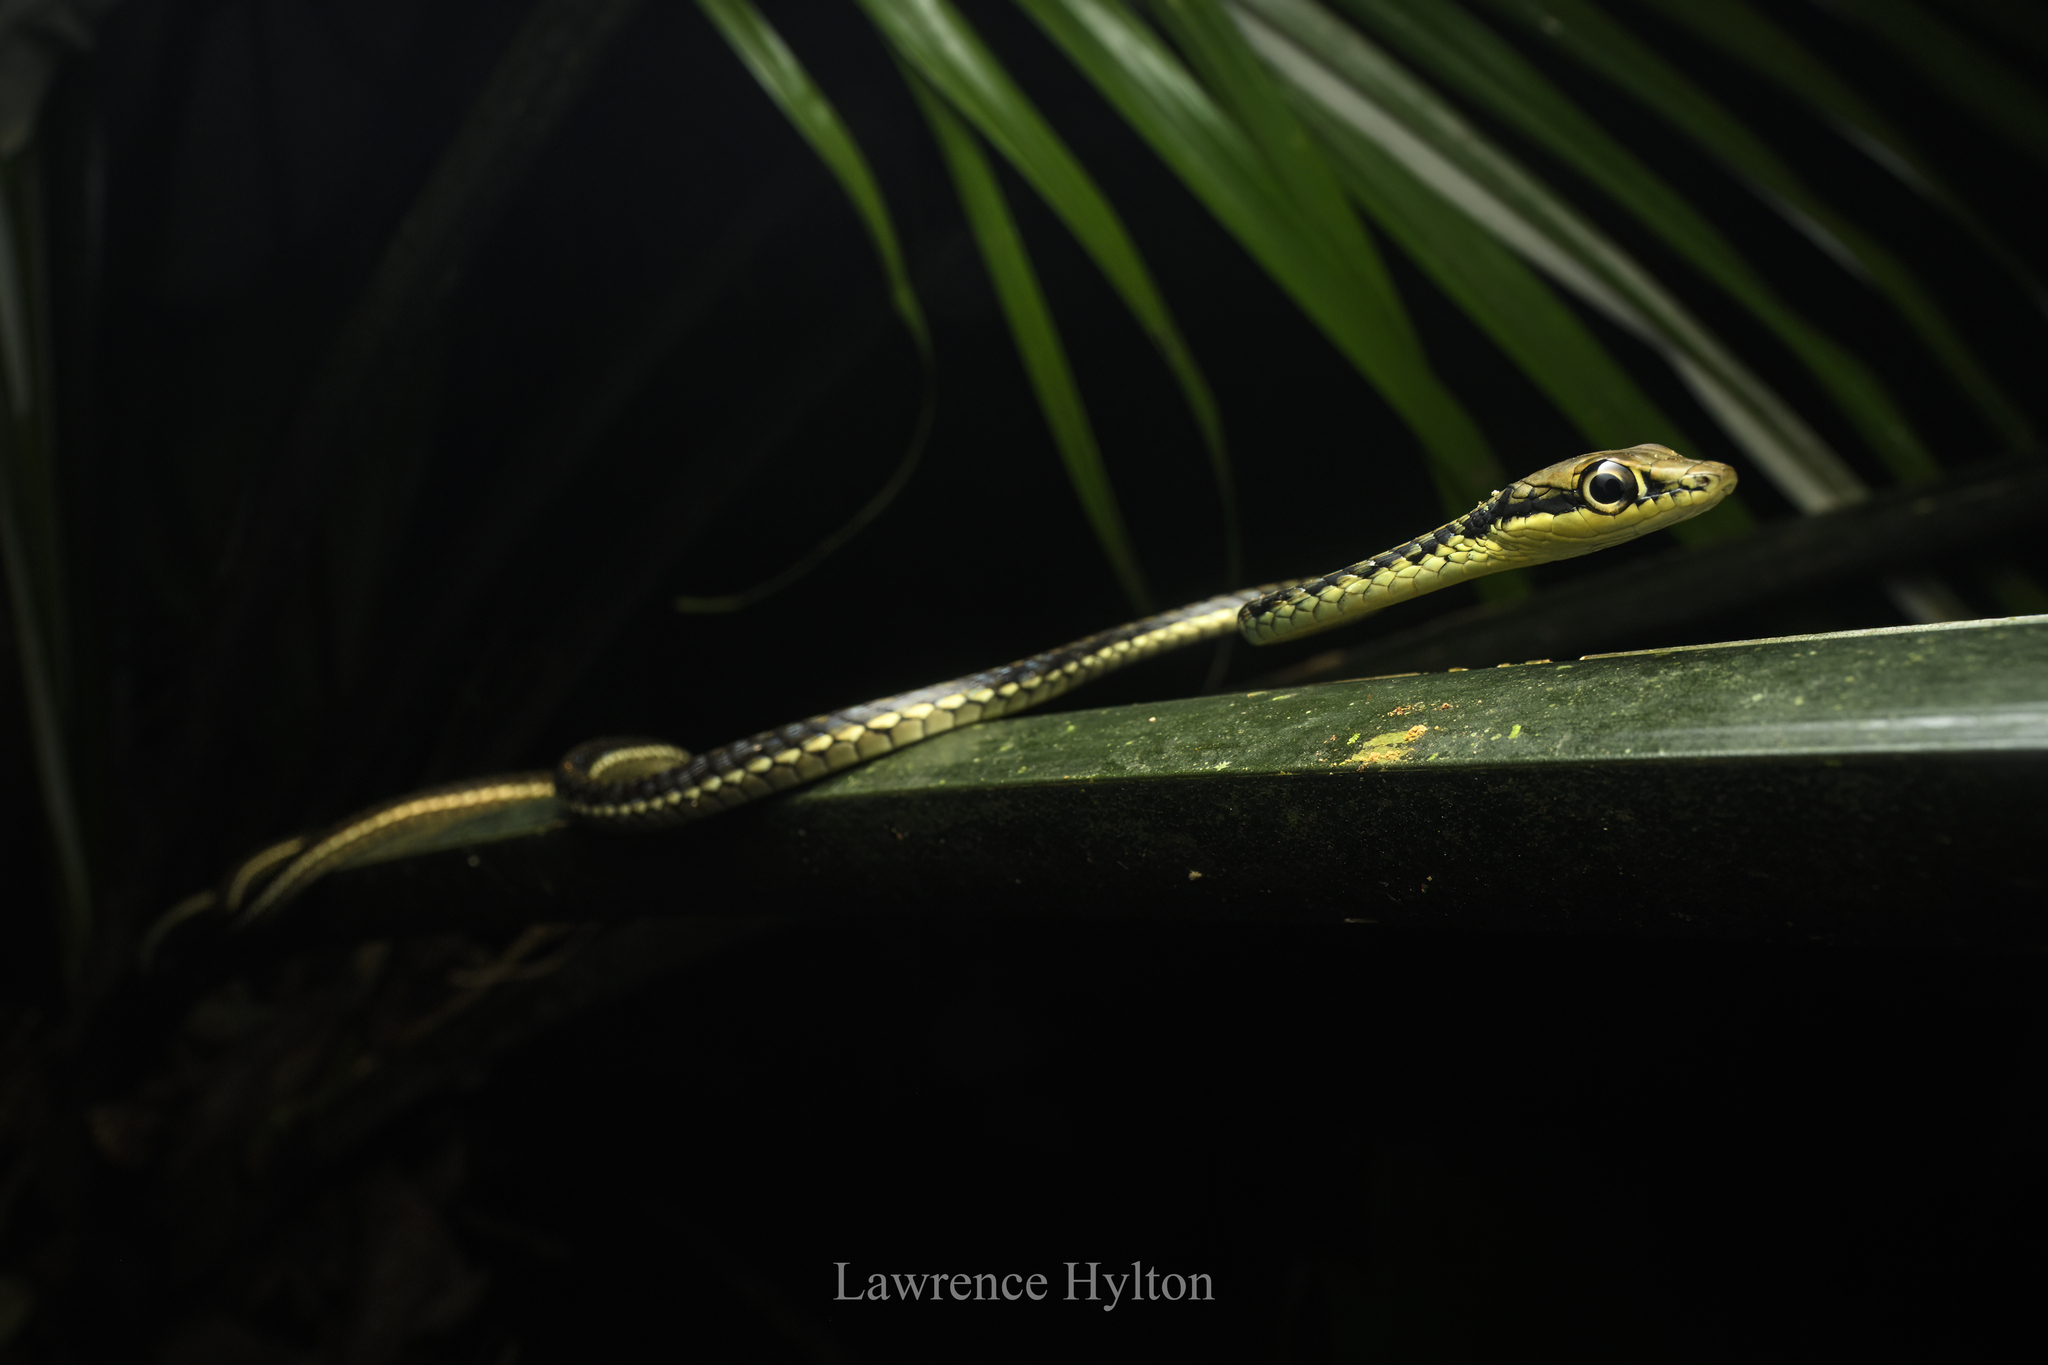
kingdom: Animalia
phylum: Chordata
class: Squamata
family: Colubridae
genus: Dendrelaphis
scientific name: Dendrelaphis haasi
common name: Haas�s bronzeback
